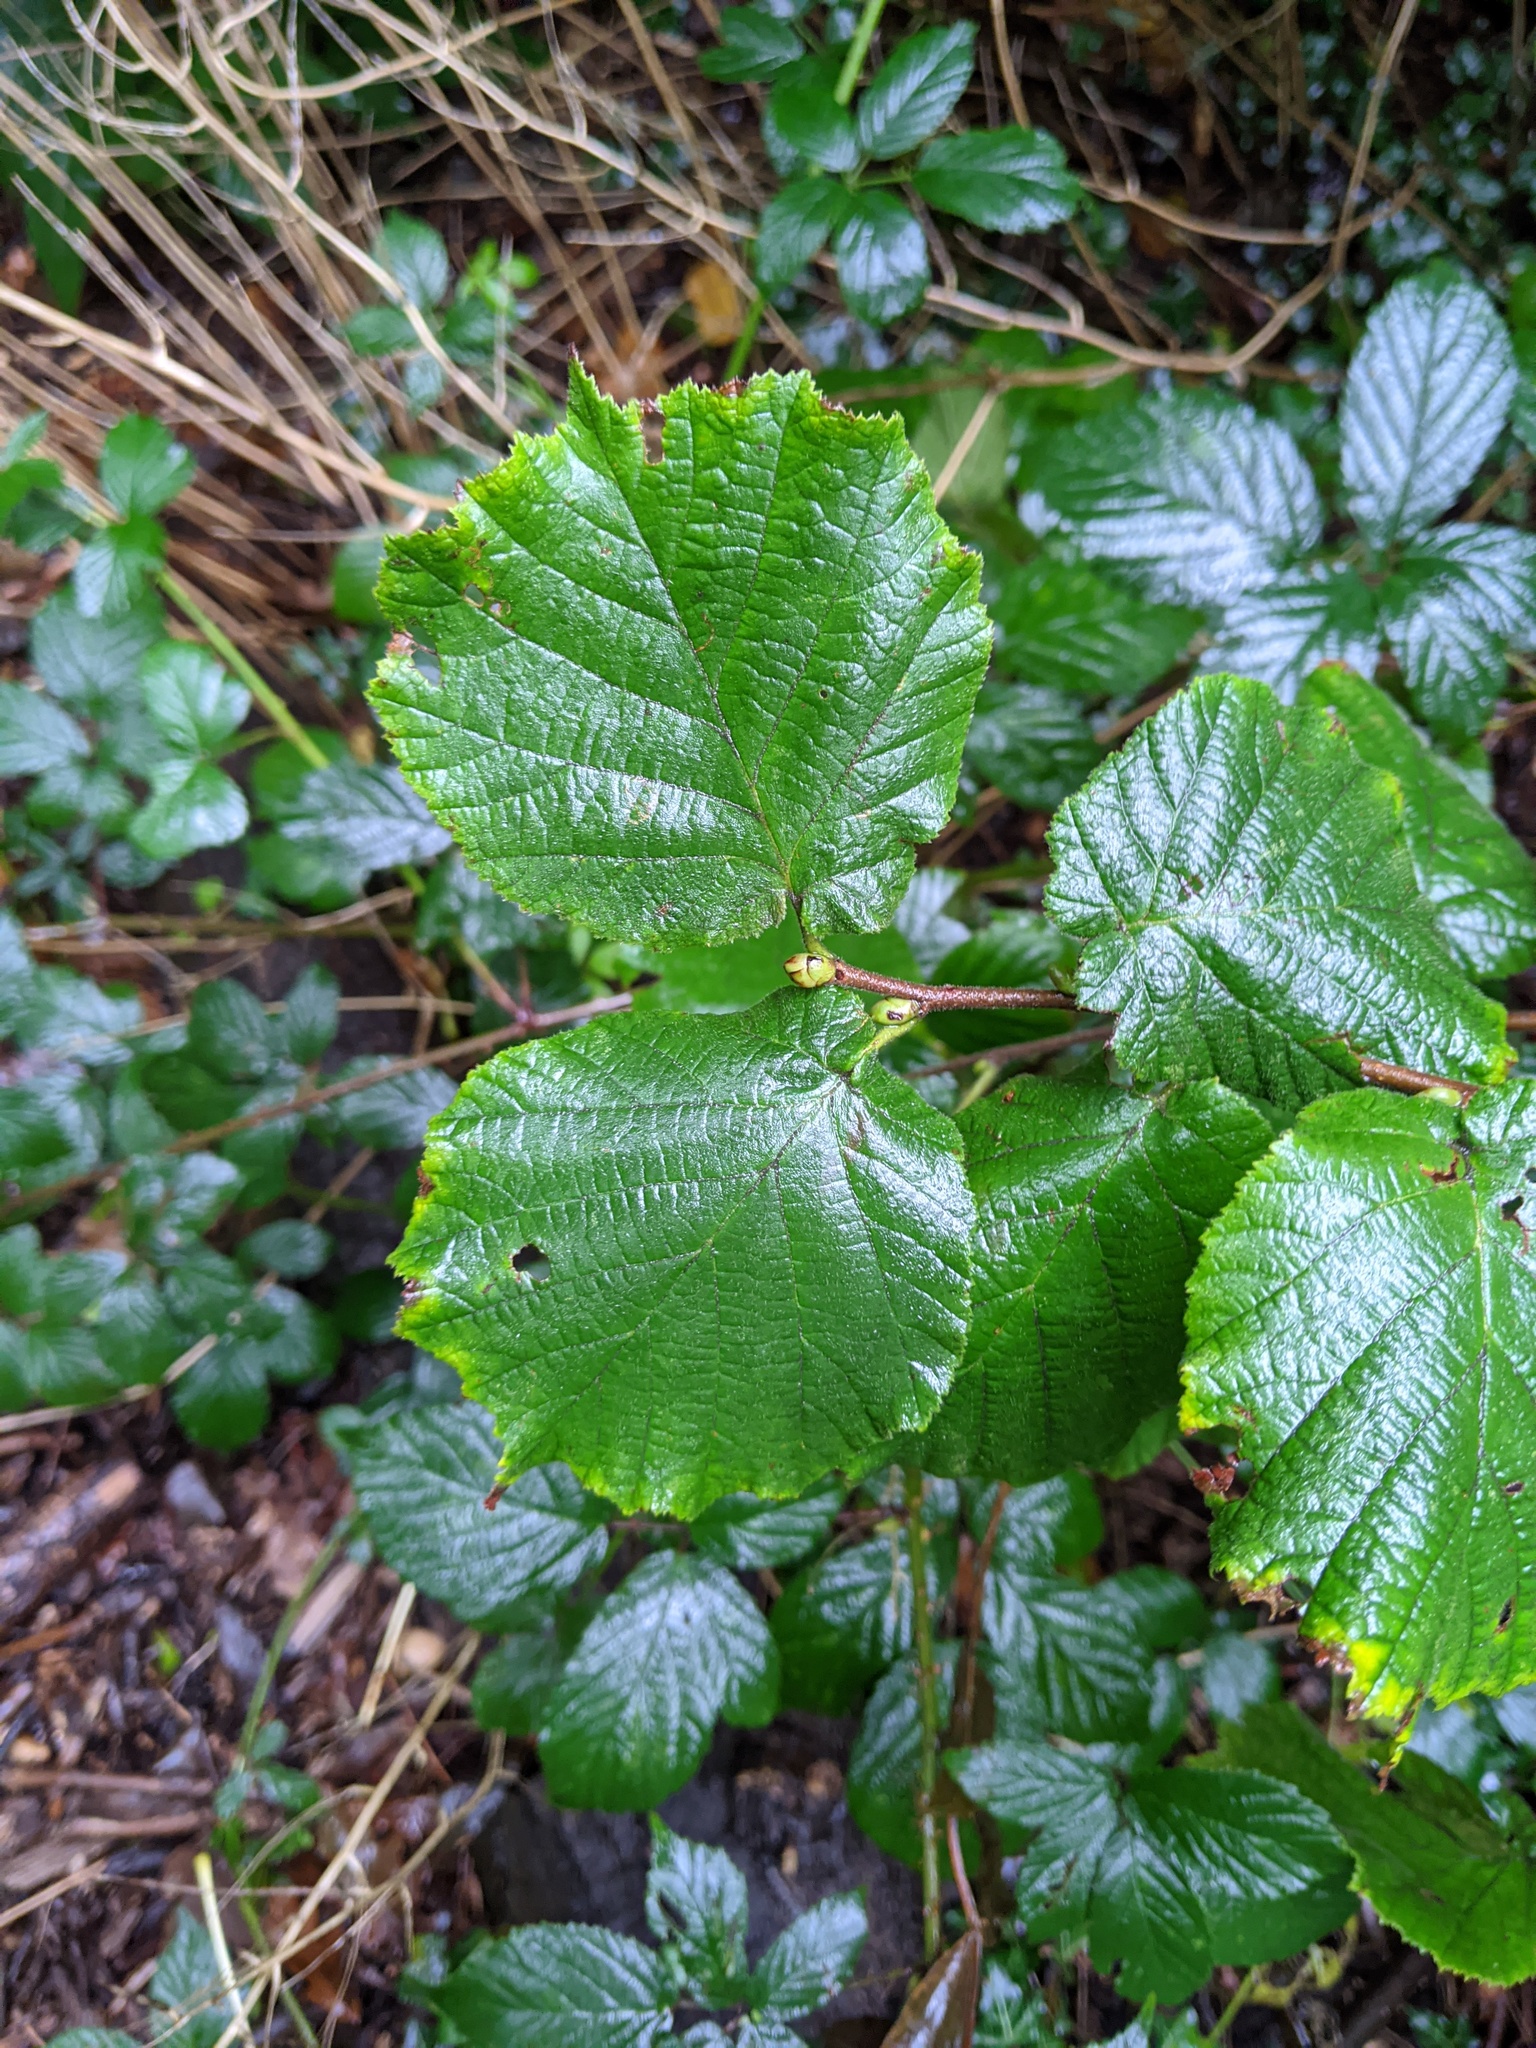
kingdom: Plantae
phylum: Tracheophyta
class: Magnoliopsida
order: Fagales
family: Betulaceae
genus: Corylus
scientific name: Corylus avellana
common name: European hazel
